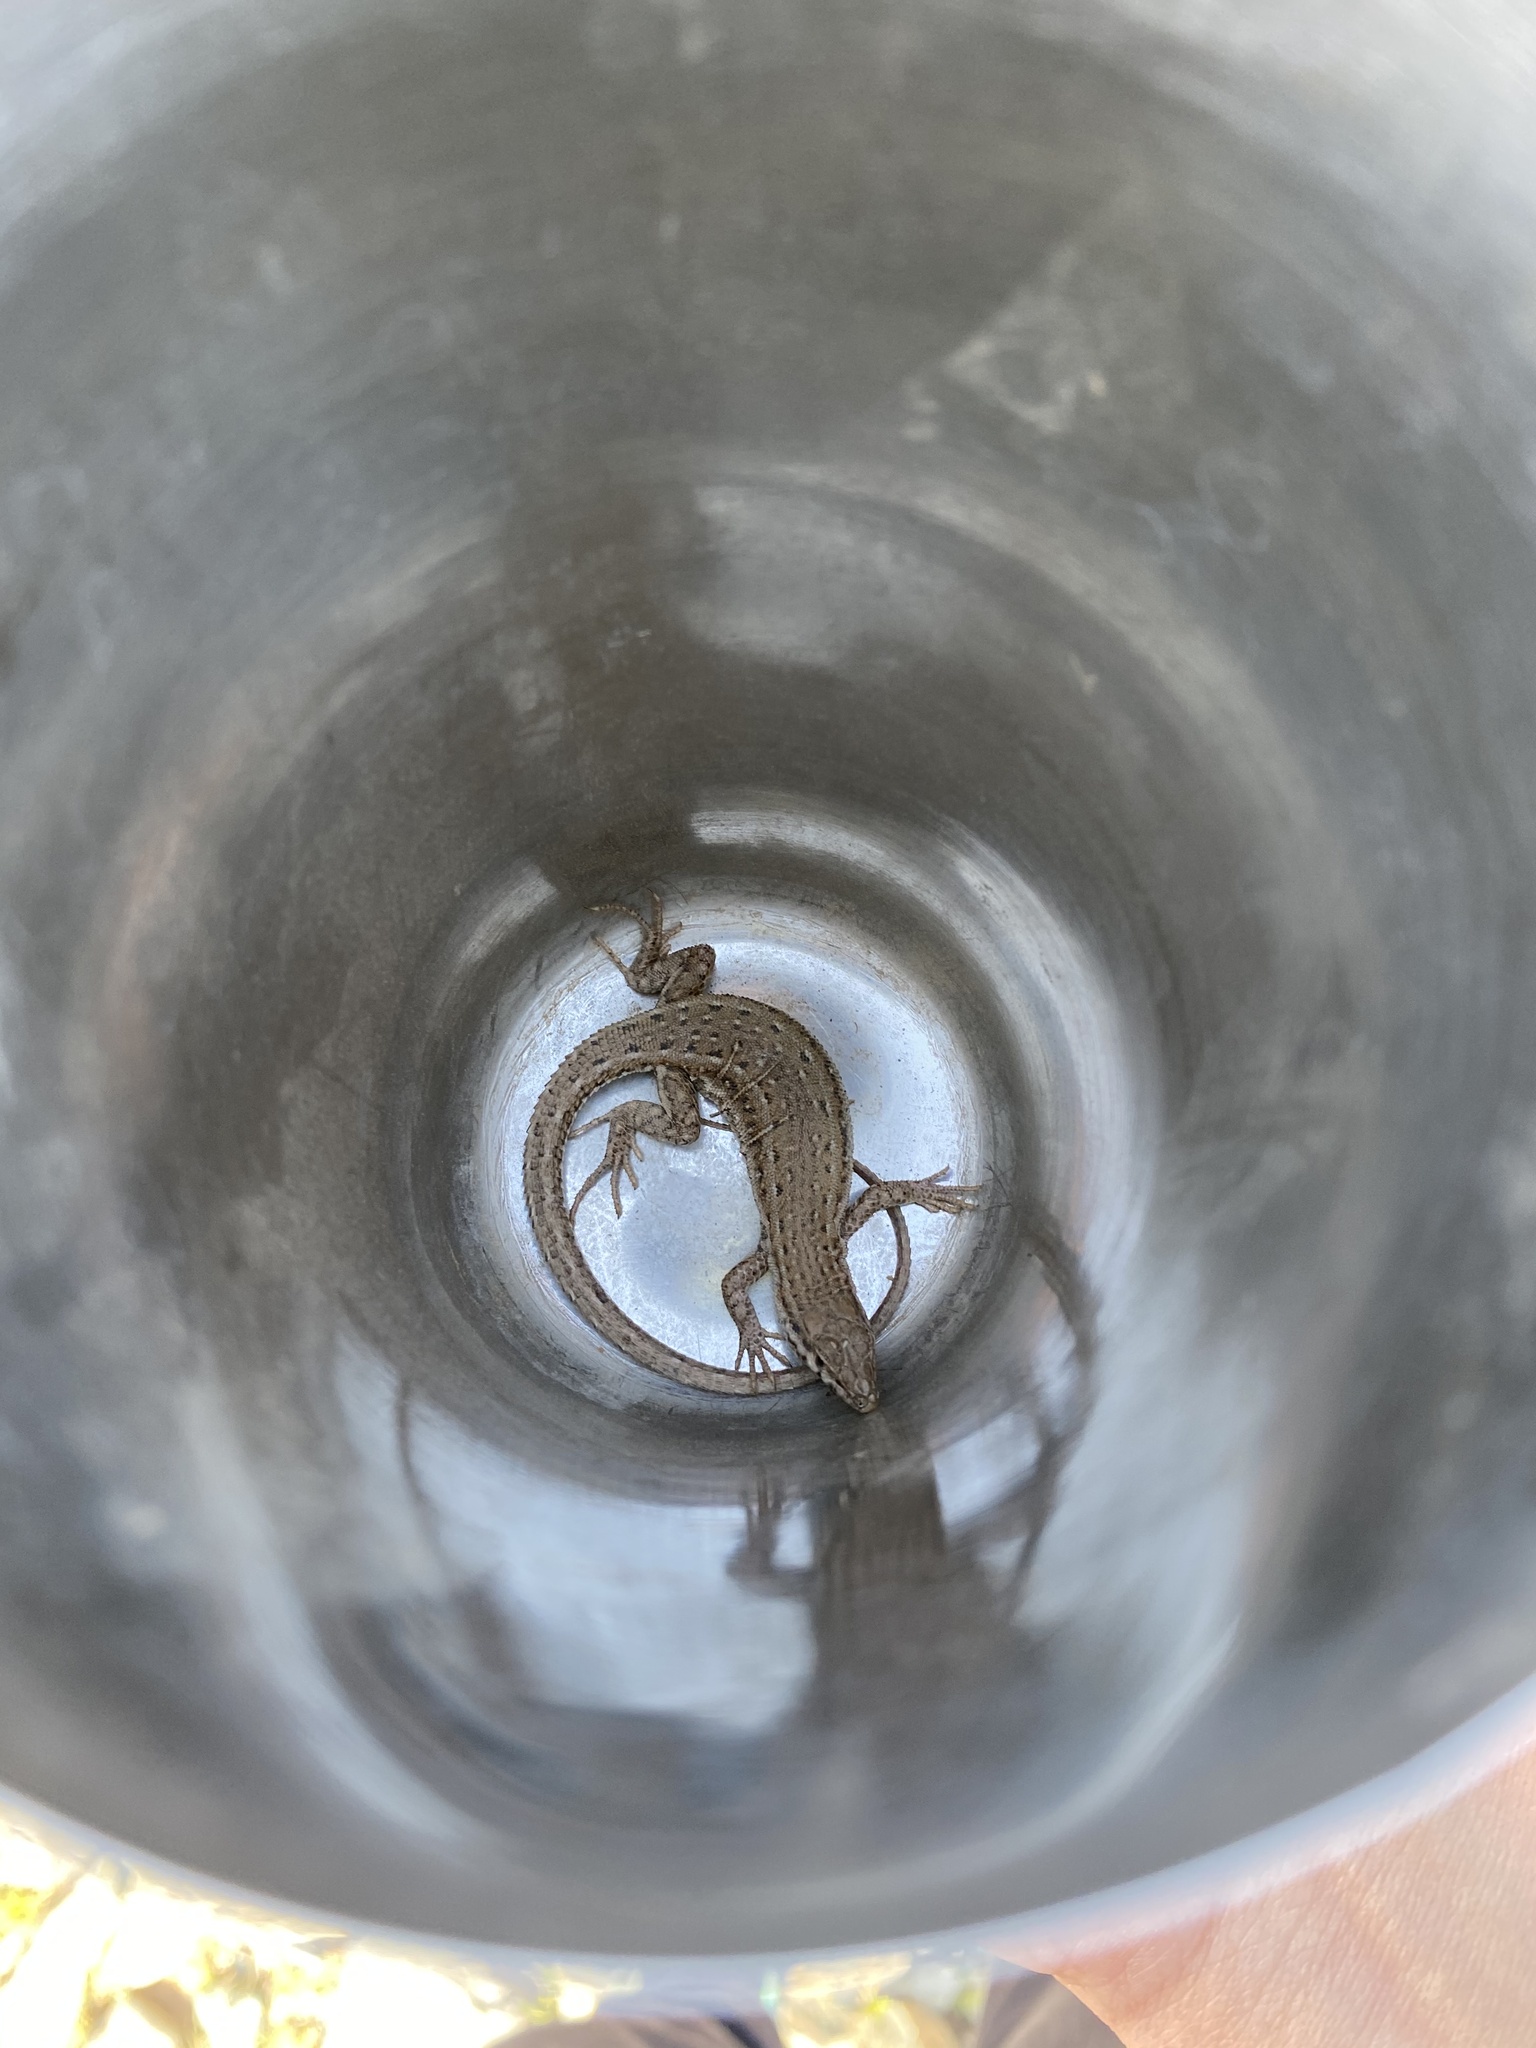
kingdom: Animalia
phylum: Chordata
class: Squamata
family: Lacertidae
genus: Mesalina
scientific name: Mesalina watsonana
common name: Persian long-tailed desert lizard
